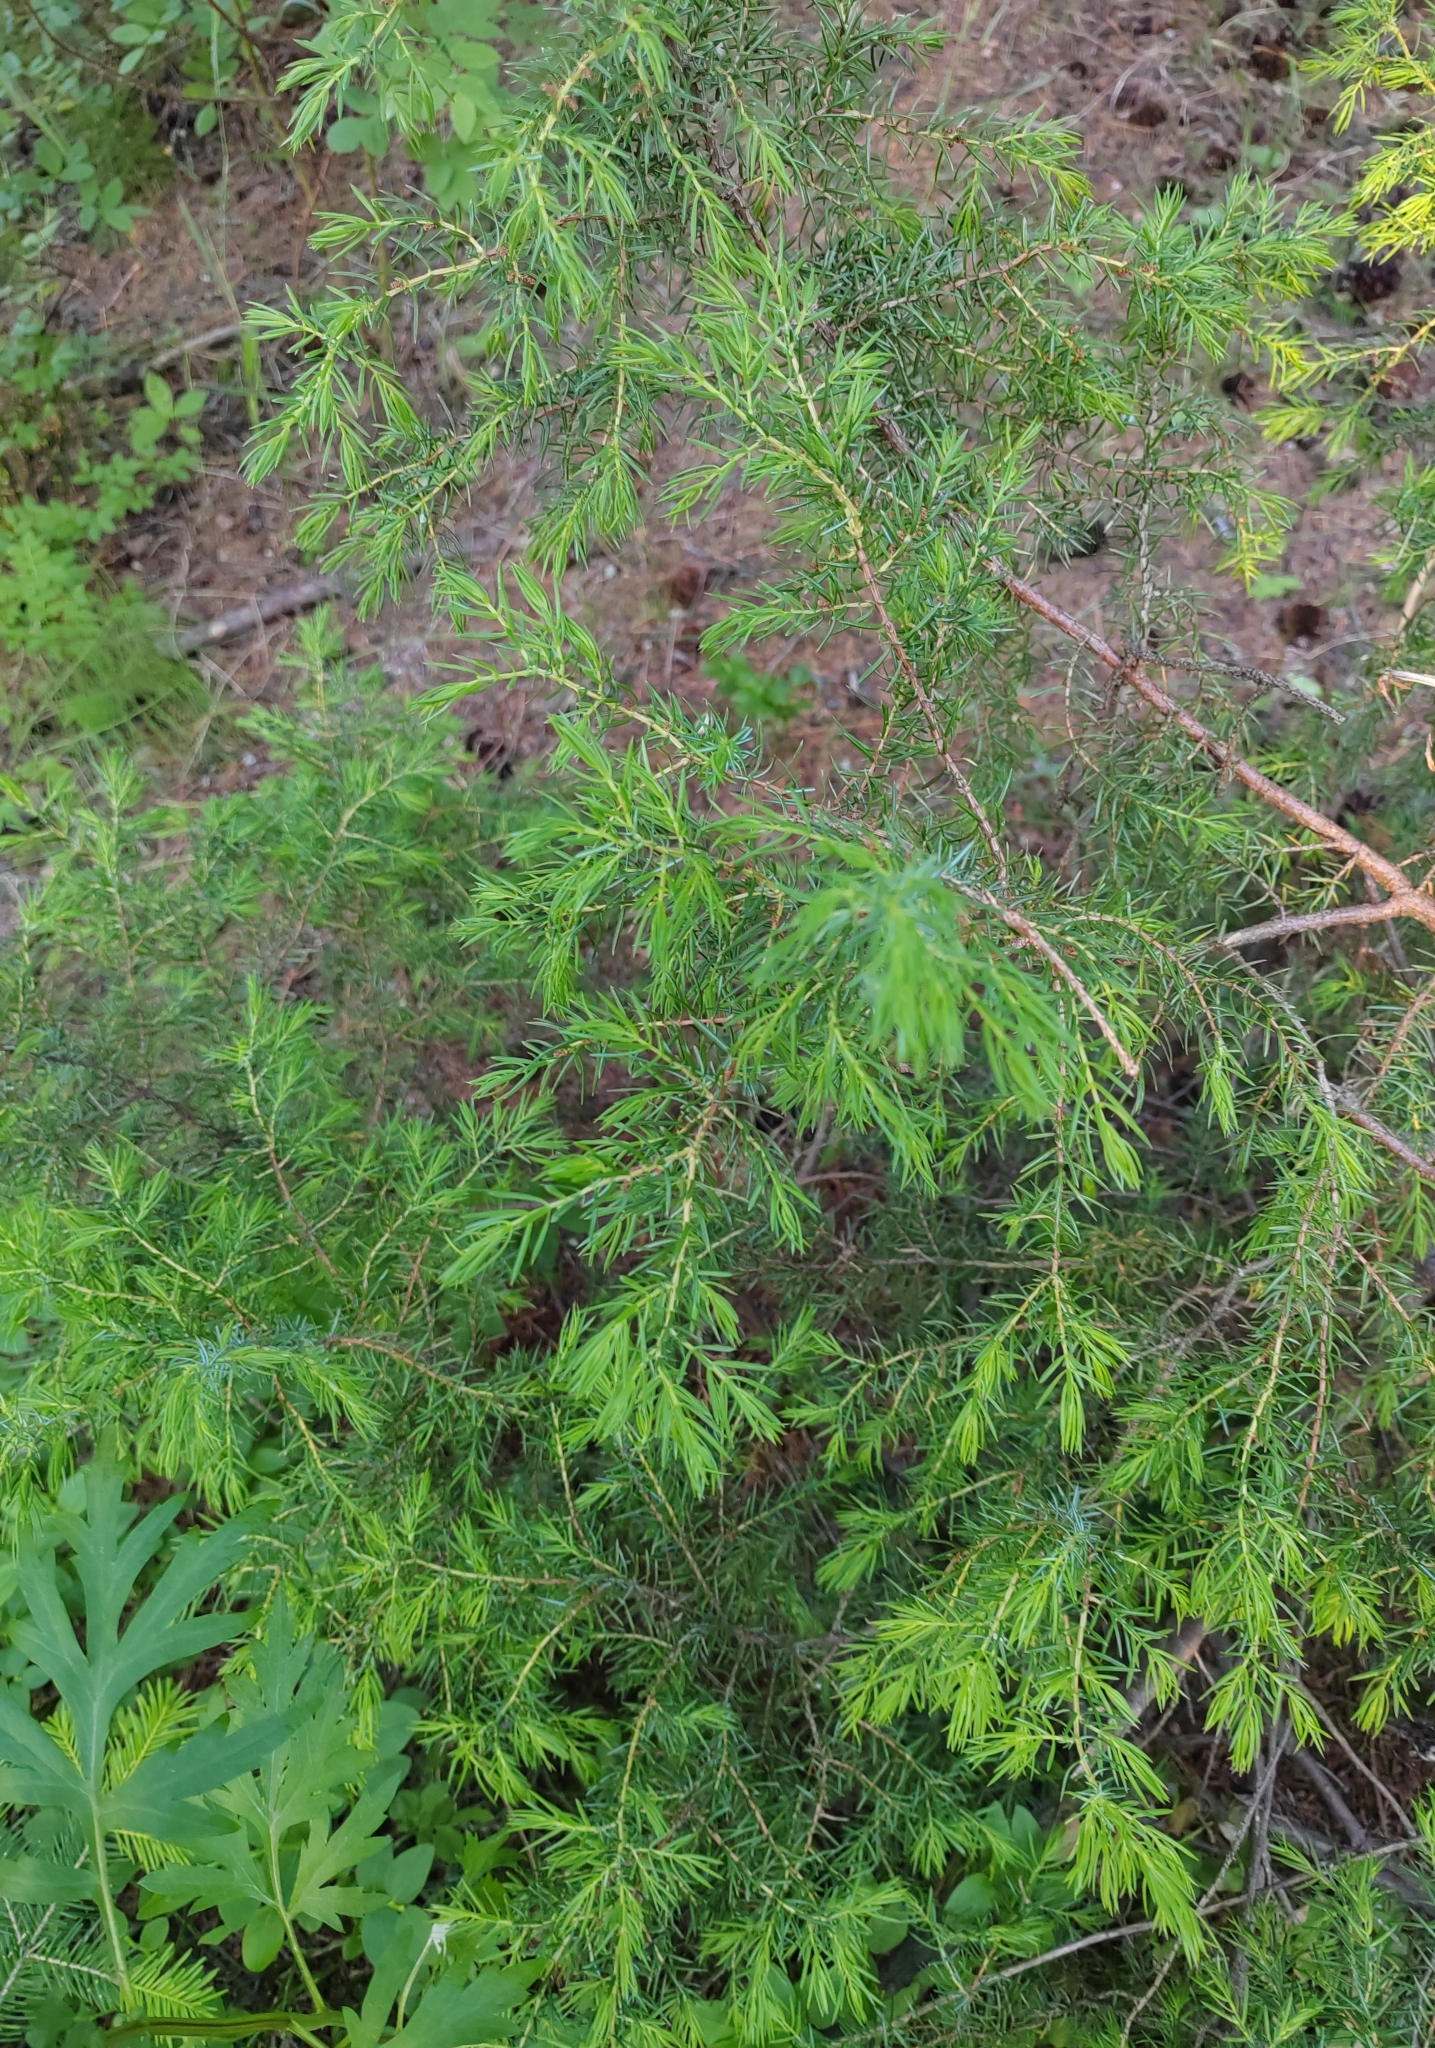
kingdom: Plantae
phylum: Tracheophyta
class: Pinopsida
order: Pinales
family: Cupressaceae
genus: Juniperus
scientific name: Juniperus communis
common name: Common juniper
